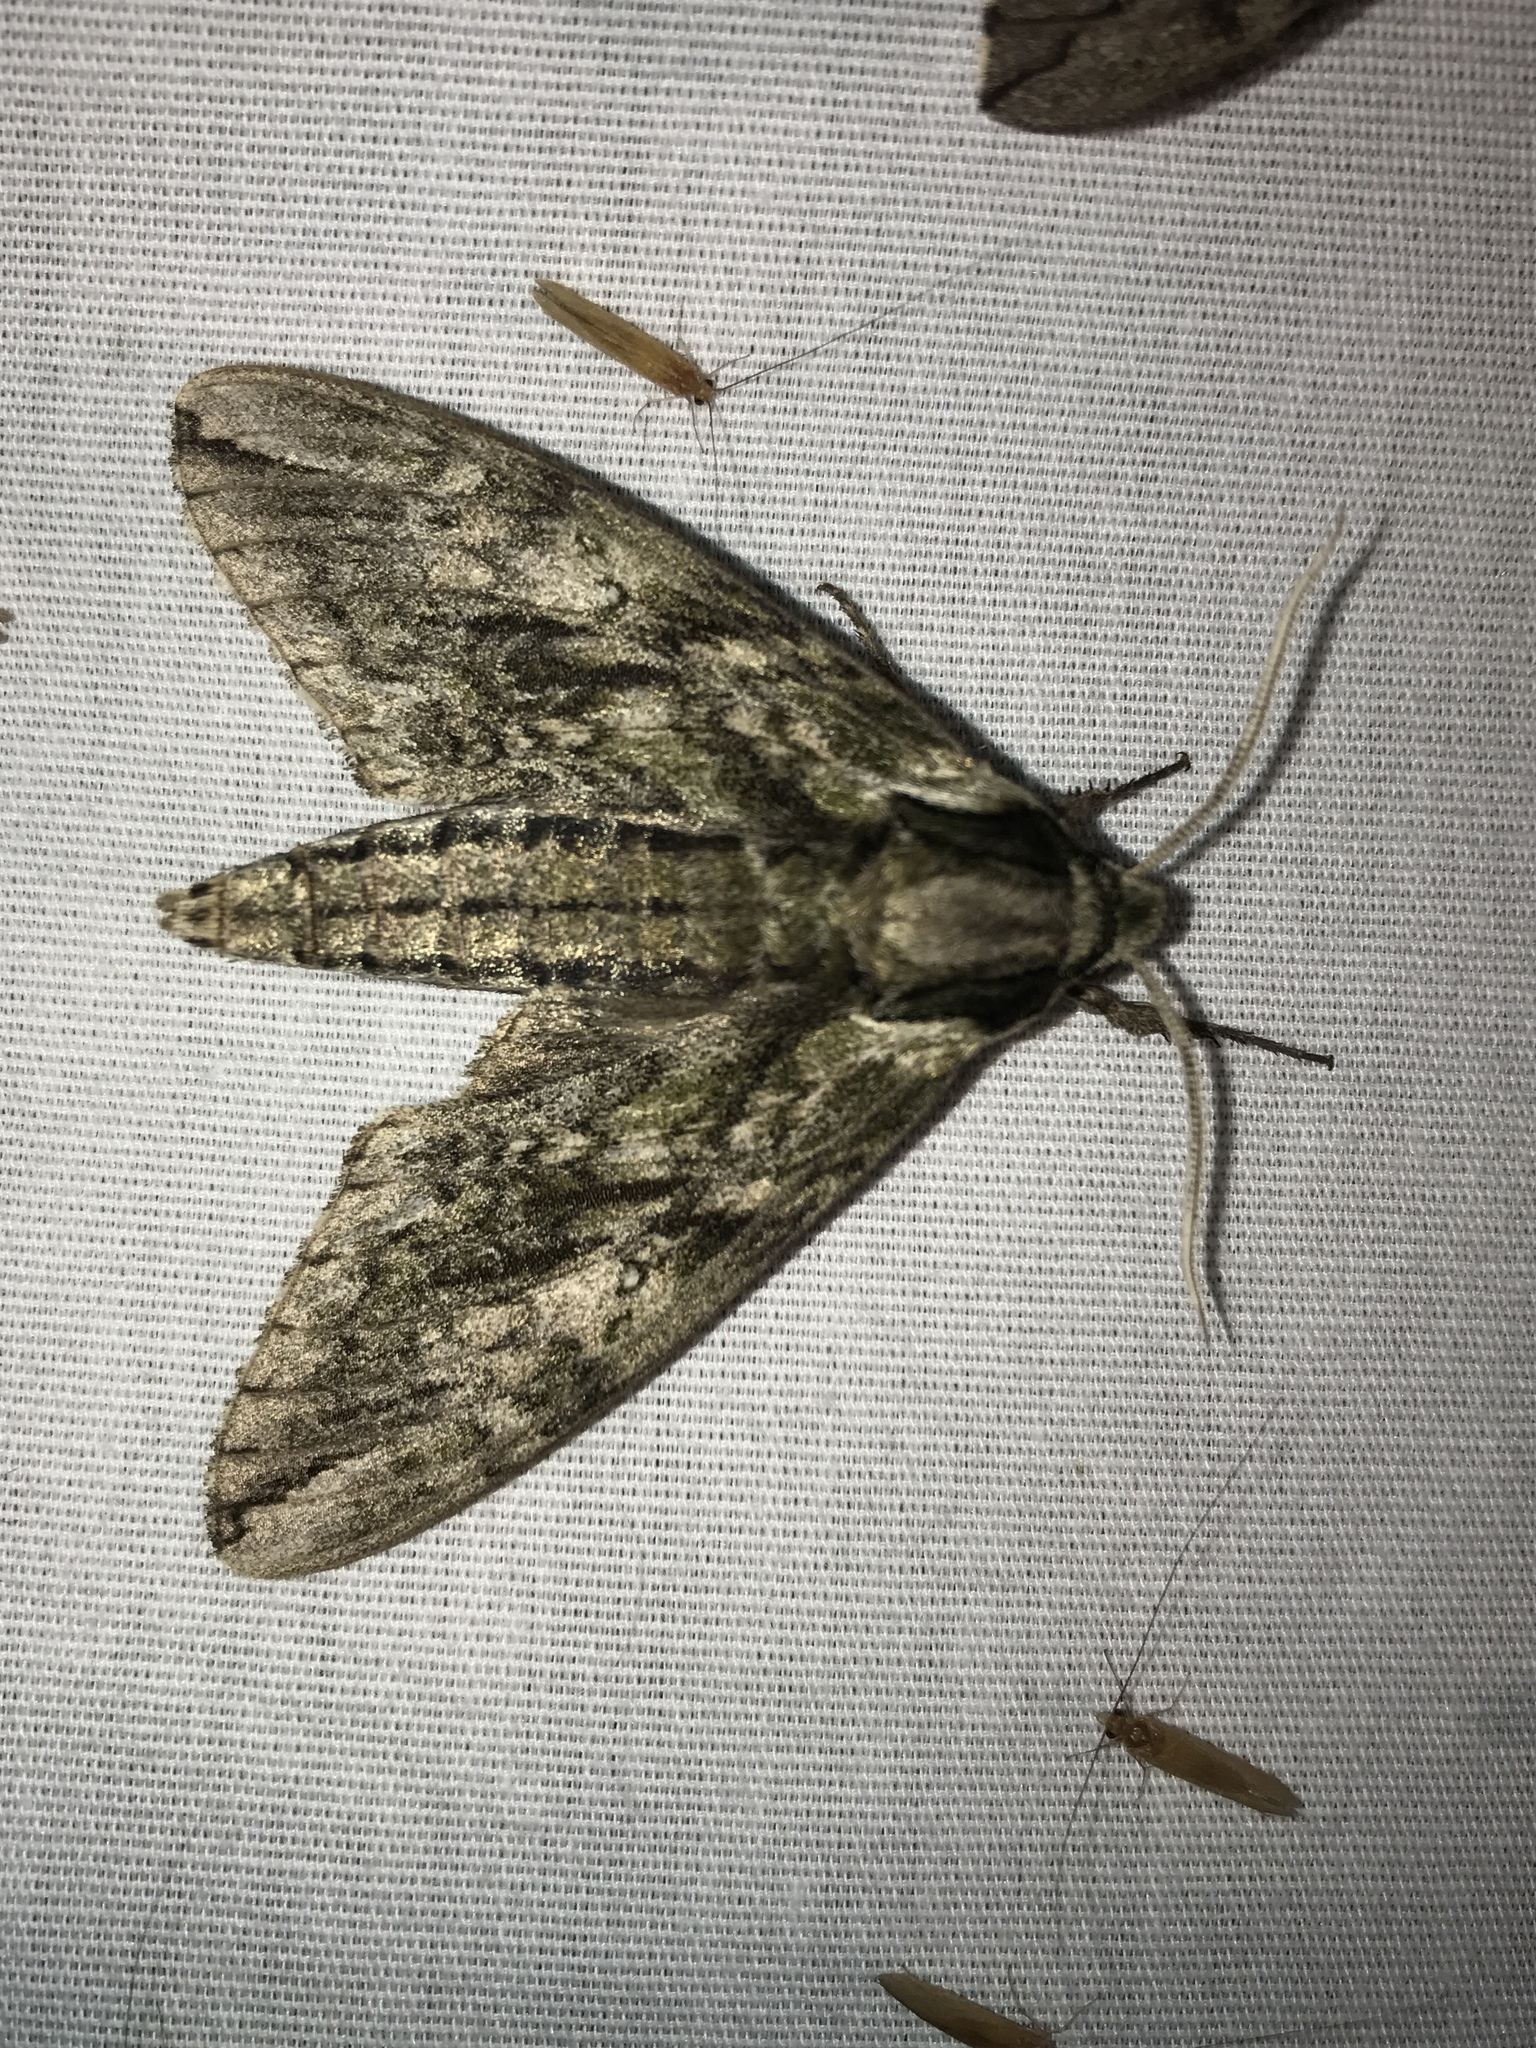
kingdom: Animalia
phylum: Arthropoda
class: Insecta
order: Lepidoptera
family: Sphingidae
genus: Ceratomia
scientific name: Ceratomia hageni
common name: Hagen's sphinx
